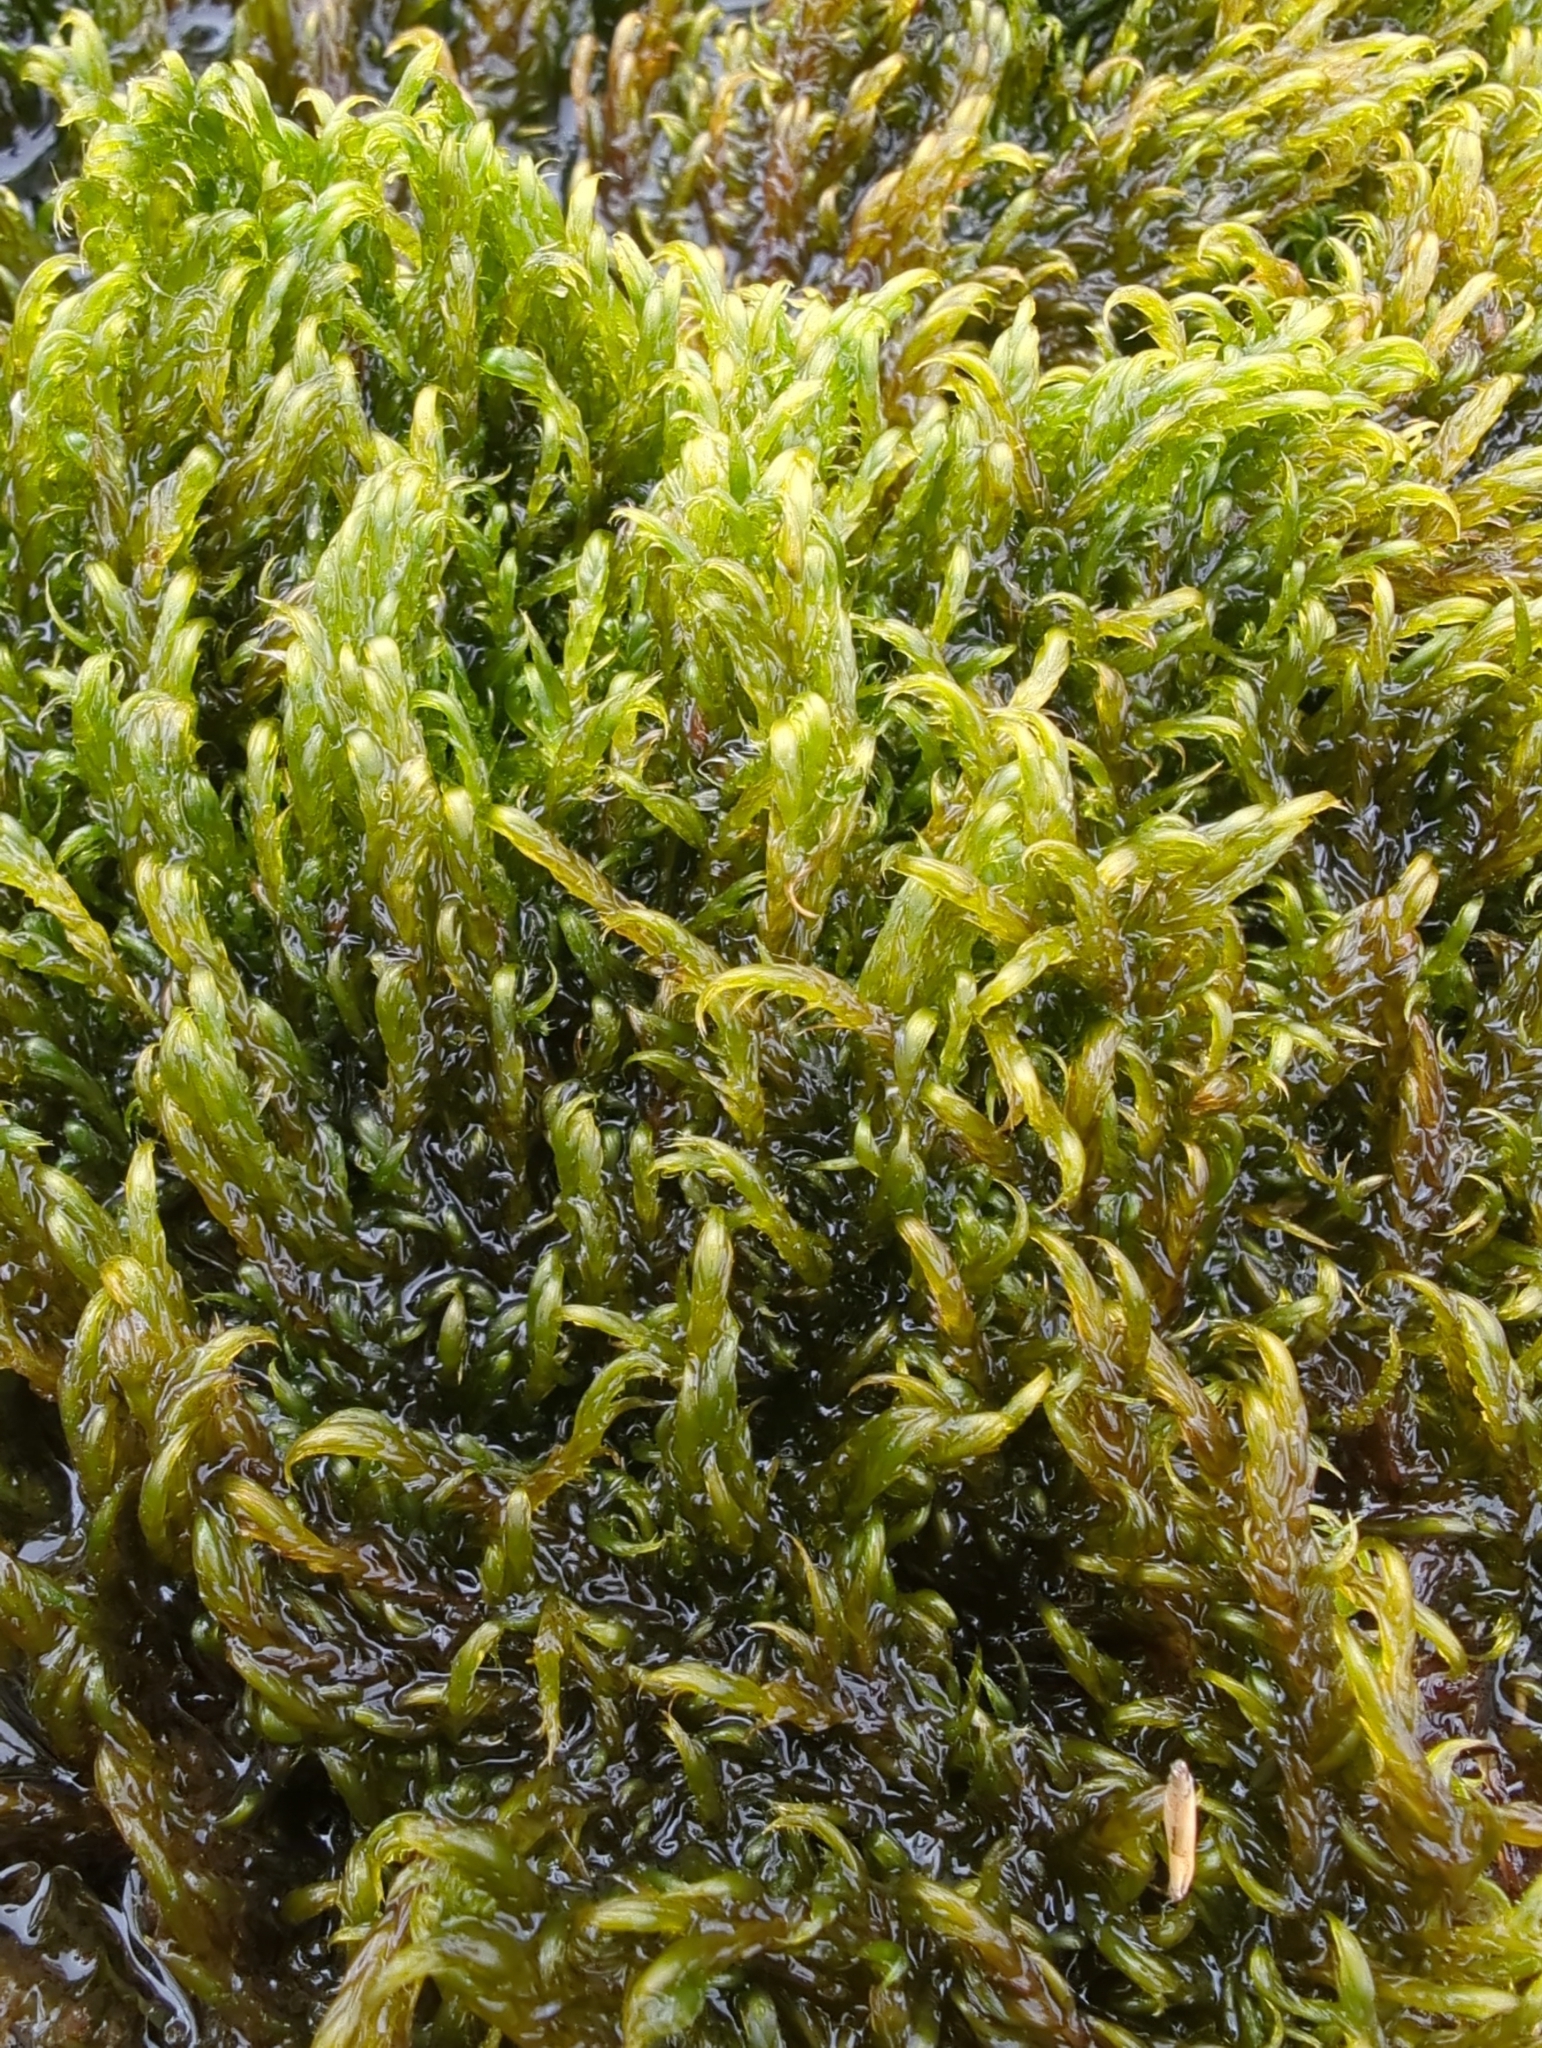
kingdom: Plantae
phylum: Bryophyta
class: Bryopsida
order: Hypnales
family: Calliergonaceae
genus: Warnstorfia
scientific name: Warnstorfia fluitans
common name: Floating hook moss
